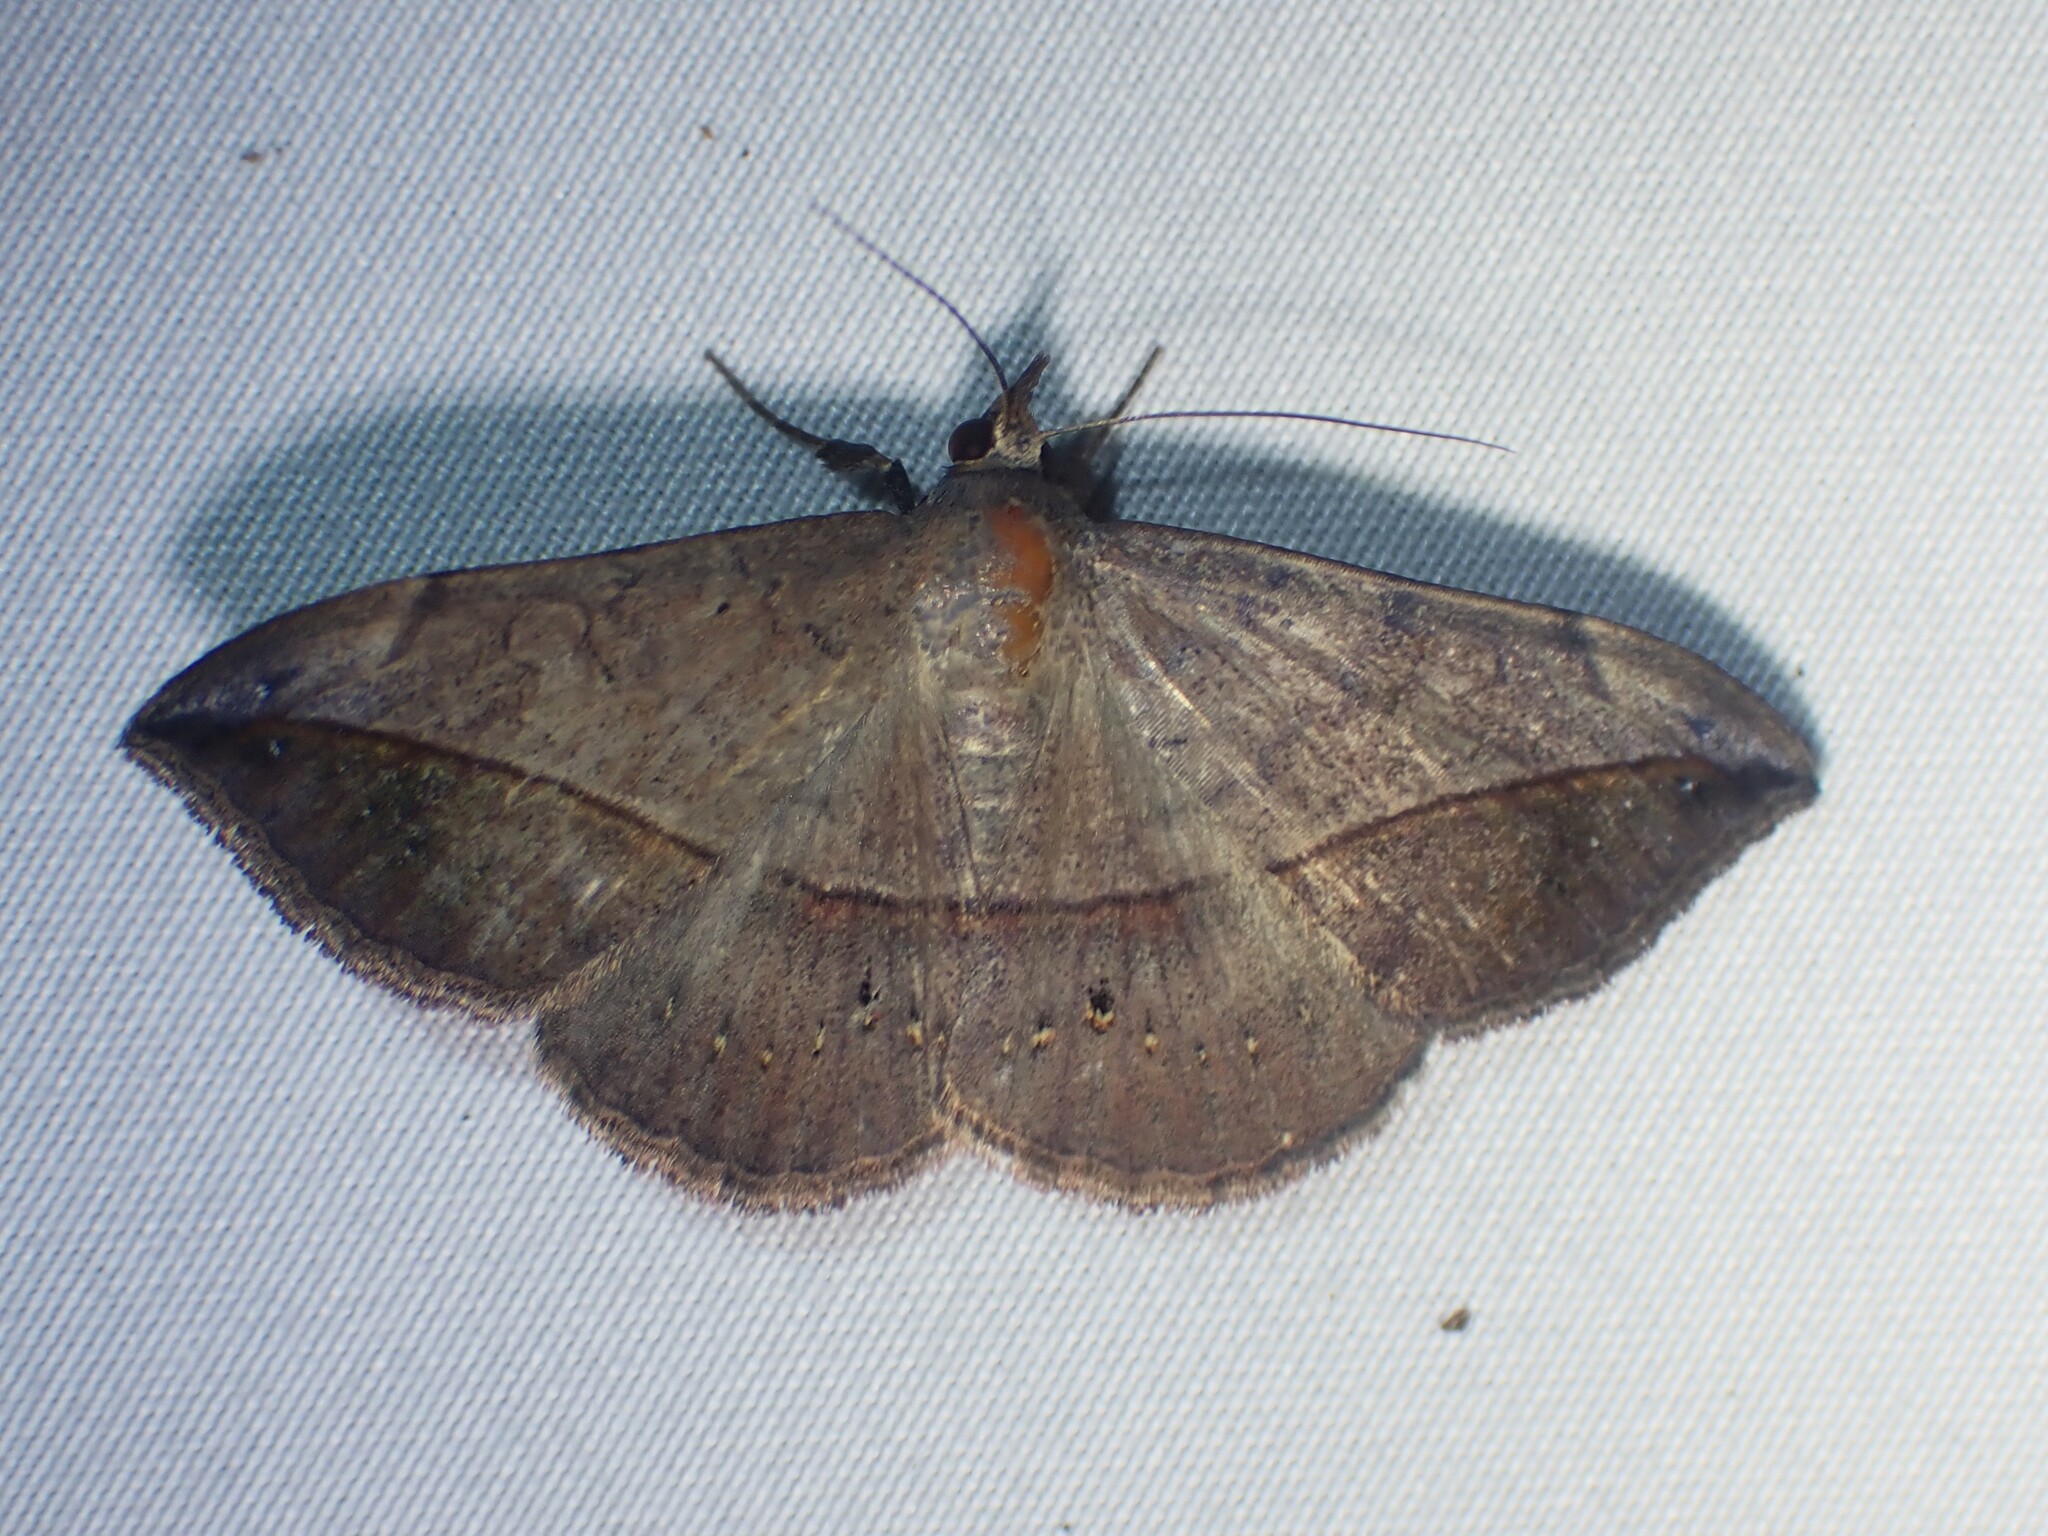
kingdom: Animalia
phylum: Arthropoda
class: Insecta
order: Lepidoptera
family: Erebidae
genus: Anticarsia
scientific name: Anticarsia gemmatalis
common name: Cutworm moth
